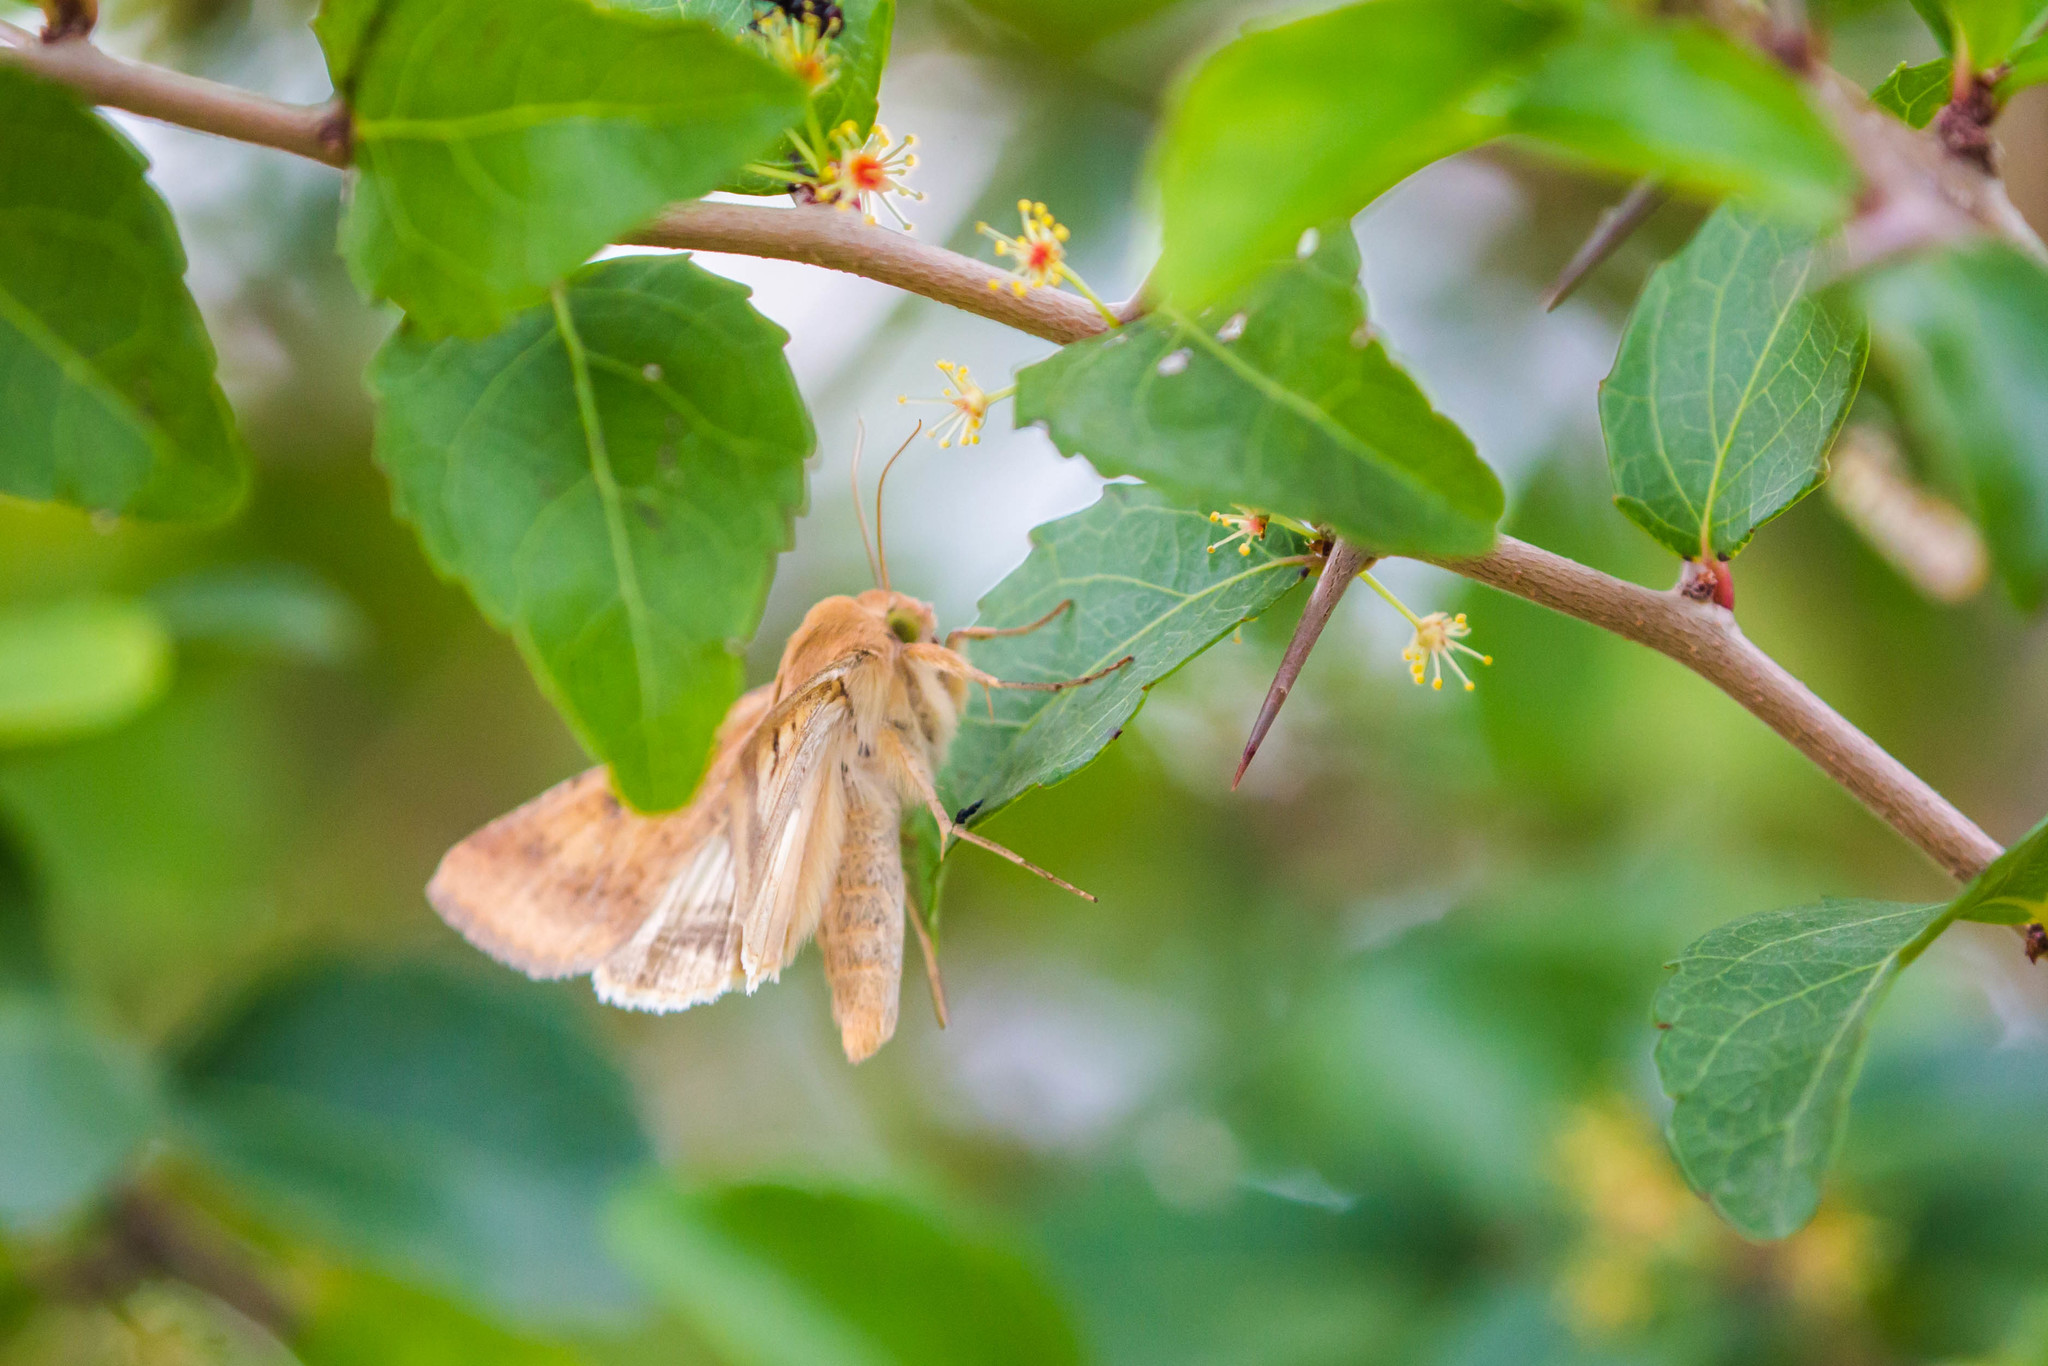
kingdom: Animalia
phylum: Arthropoda
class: Insecta
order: Lepidoptera
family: Noctuidae
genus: Helicoverpa
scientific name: Helicoverpa zea
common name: Bollworm
